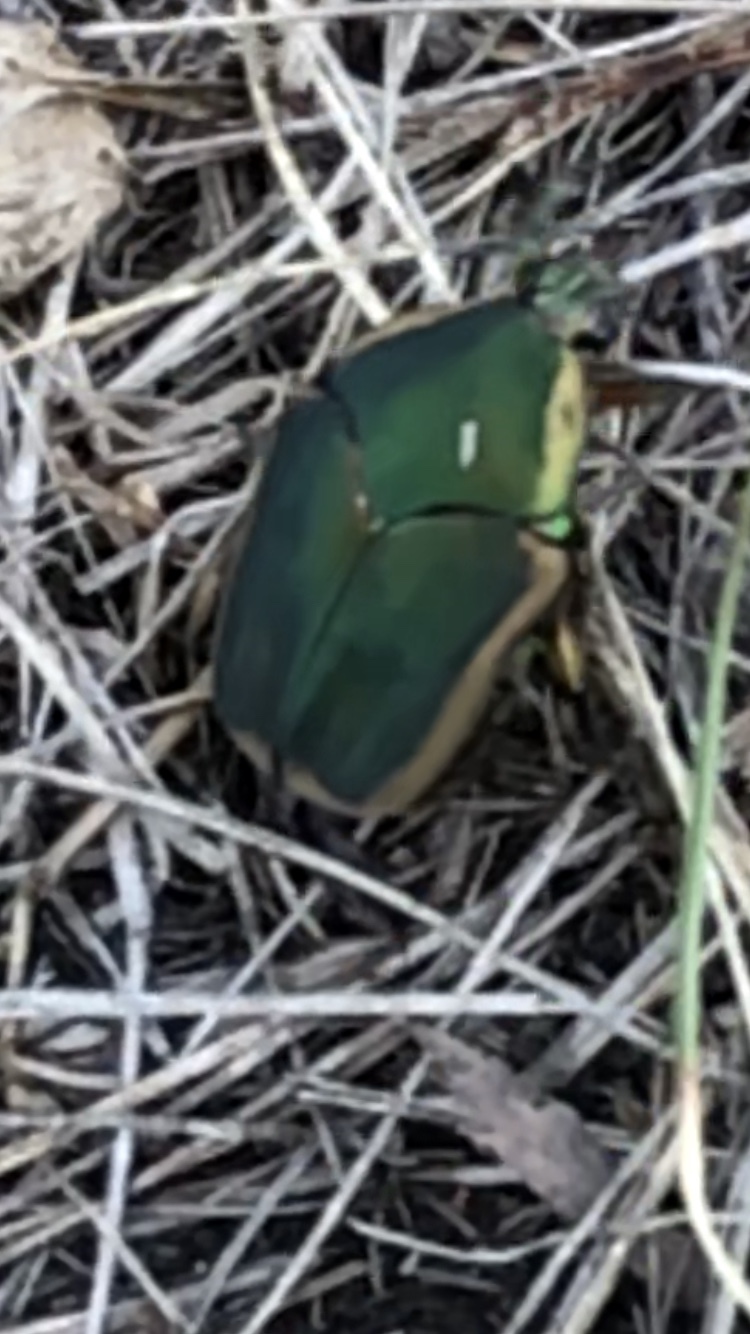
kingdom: Animalia
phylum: Arthropoda
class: Insecta
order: Coleoptera
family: Scarabaeidae
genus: Cotinis
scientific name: Cotinis nitida
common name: Common green june beetle
